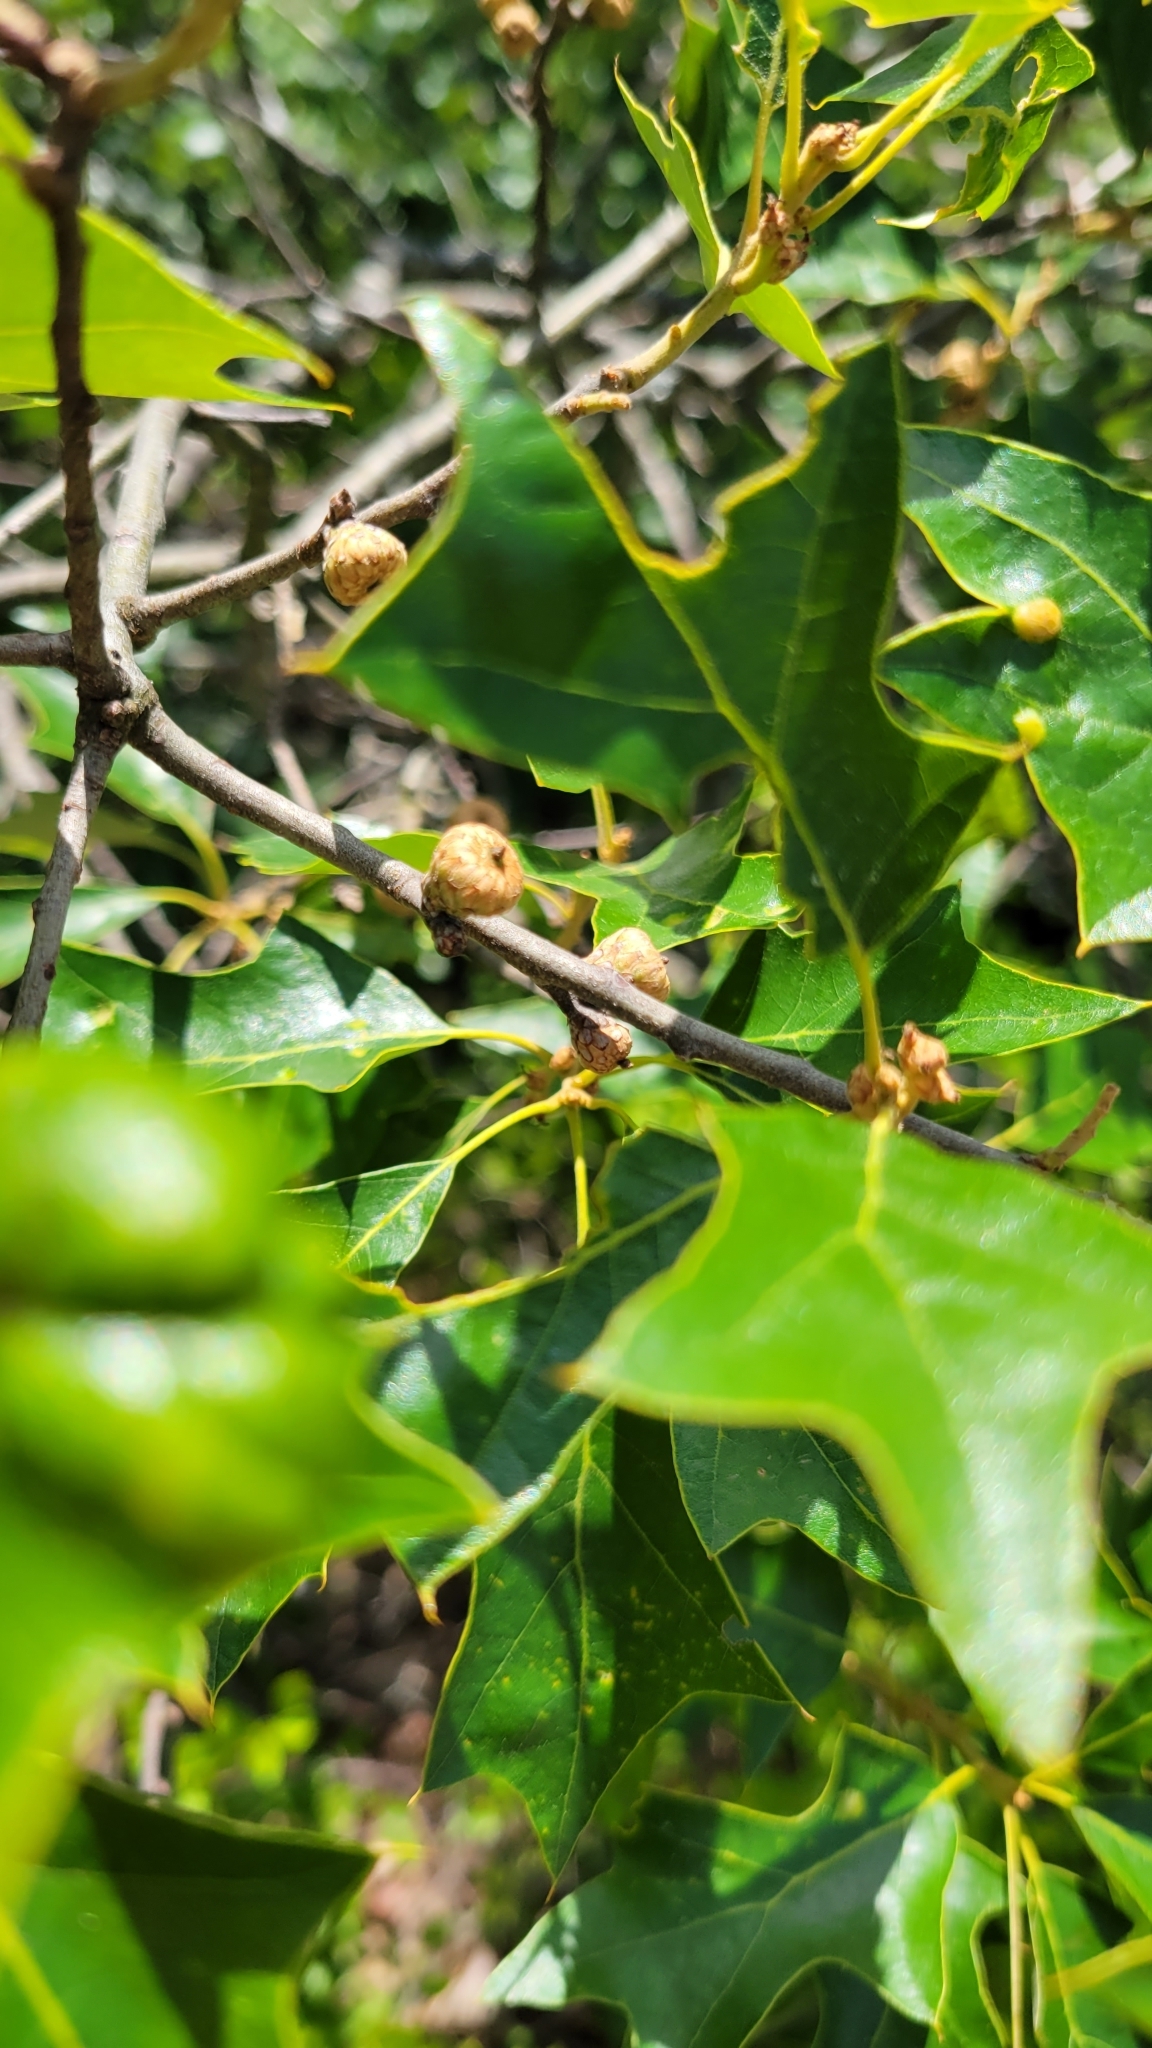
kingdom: Plantae
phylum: Tracheophyta
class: Magnoliopsida
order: Fagales
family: Fagaceae
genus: Quercus
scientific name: Quercus ilicifolia
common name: Bear oak
